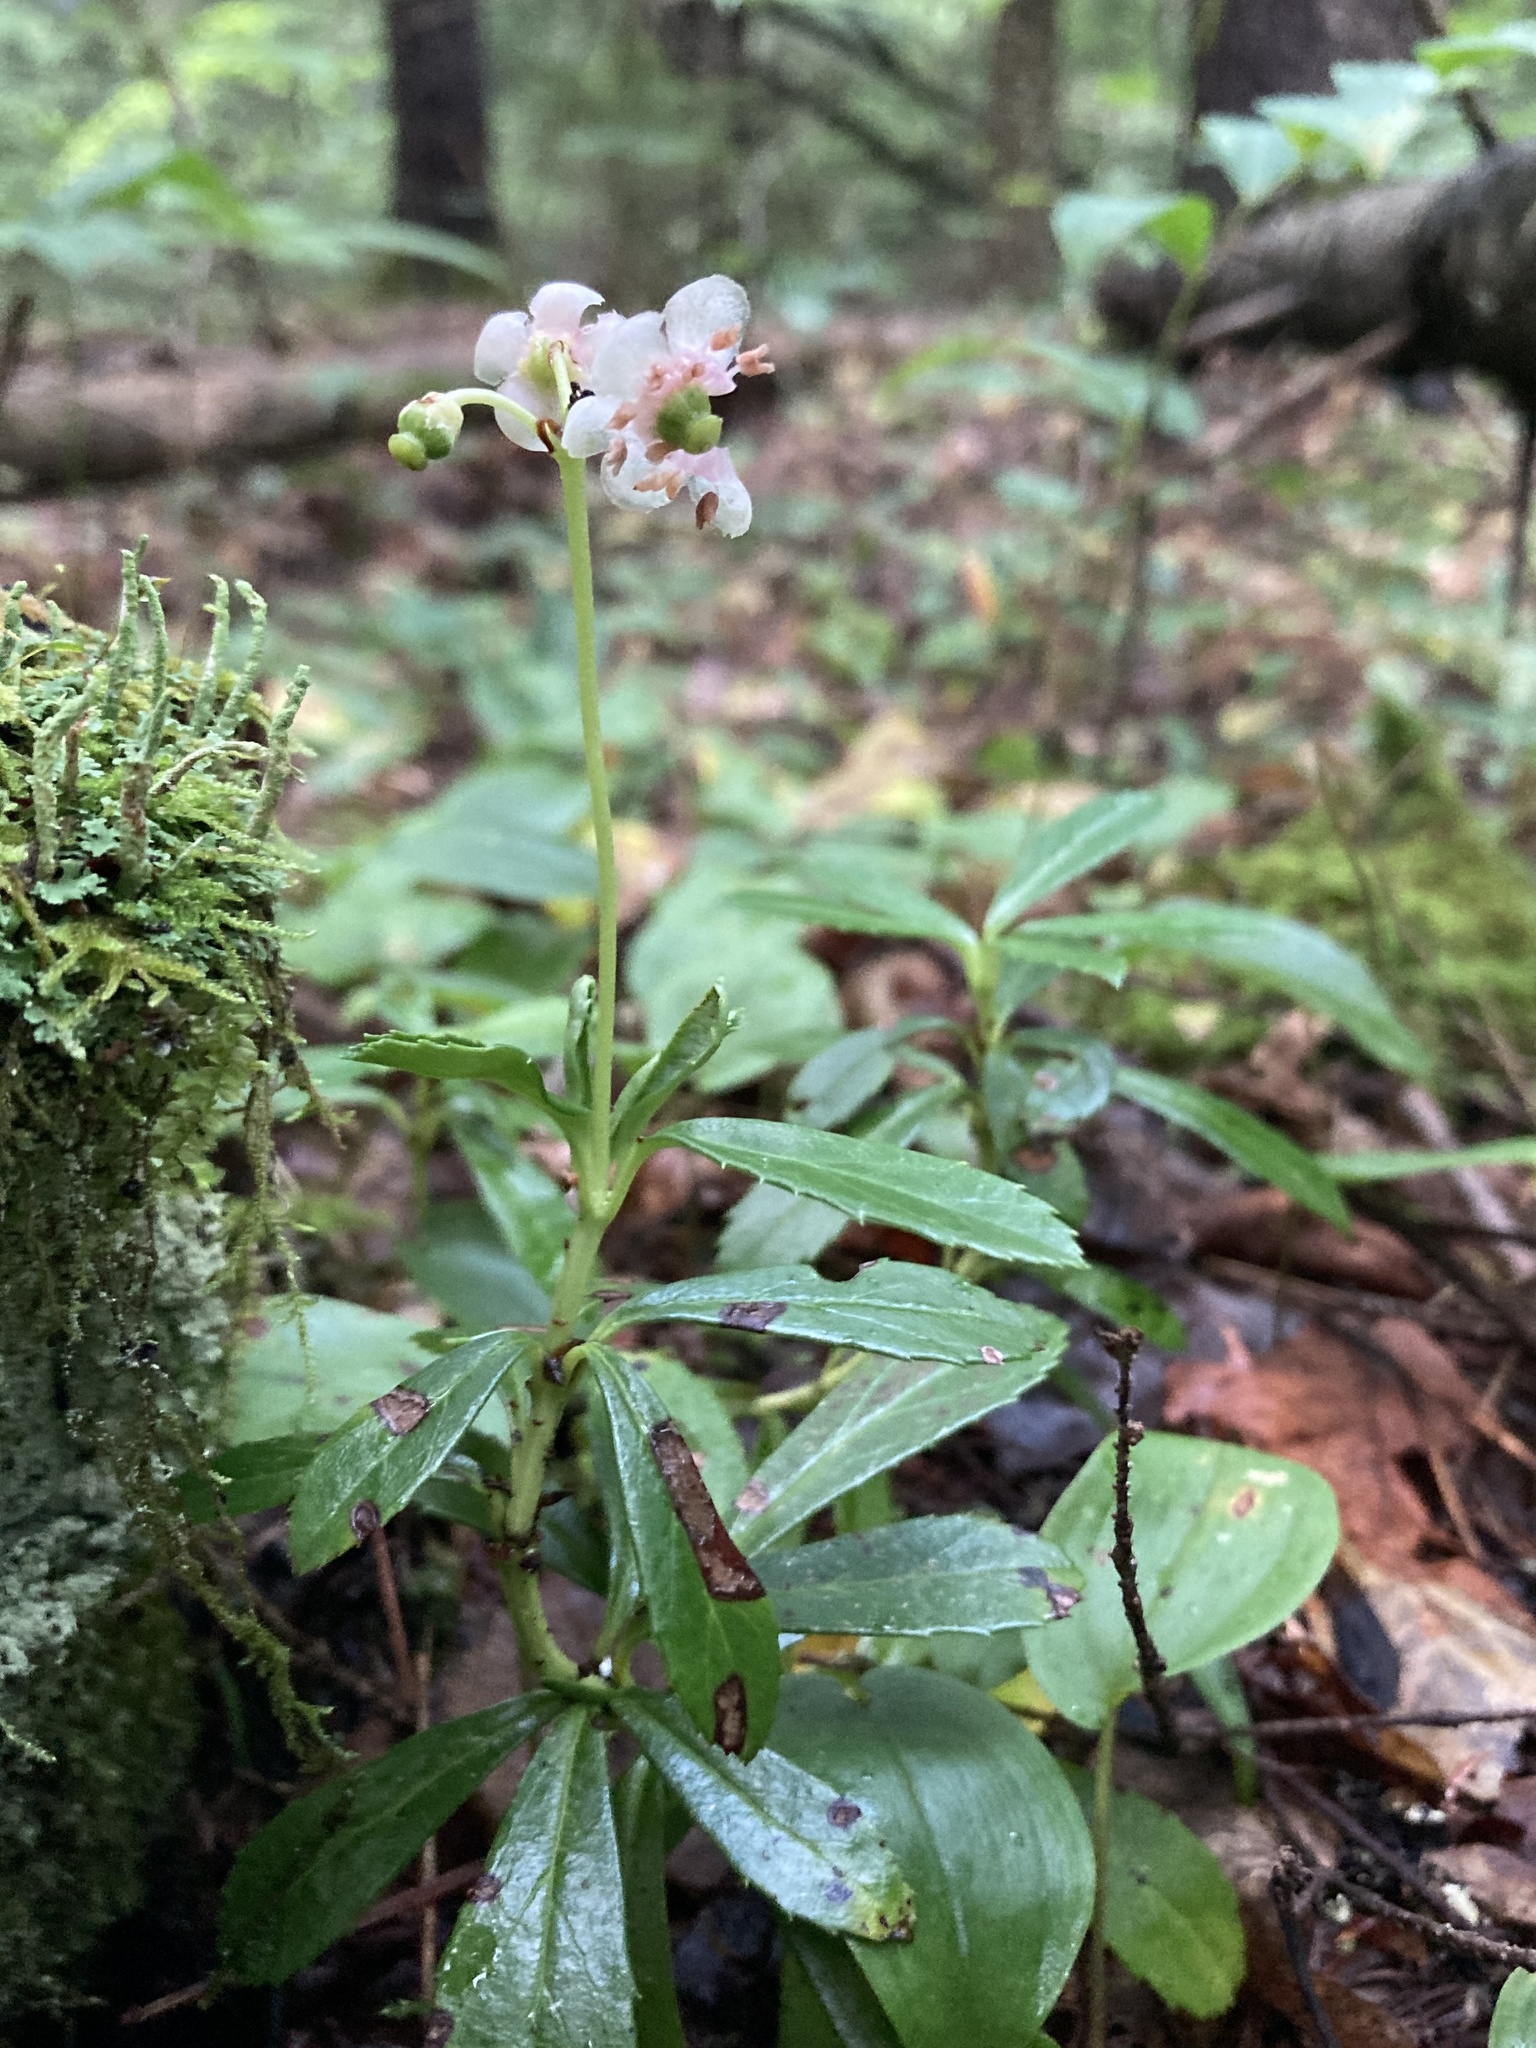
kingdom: Plantae
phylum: Tracheophyta
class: Magnoliopsida
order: Ericales
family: Ericaceae
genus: Chimaphila
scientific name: Chimaphila umbellata
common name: Pipsissewa
